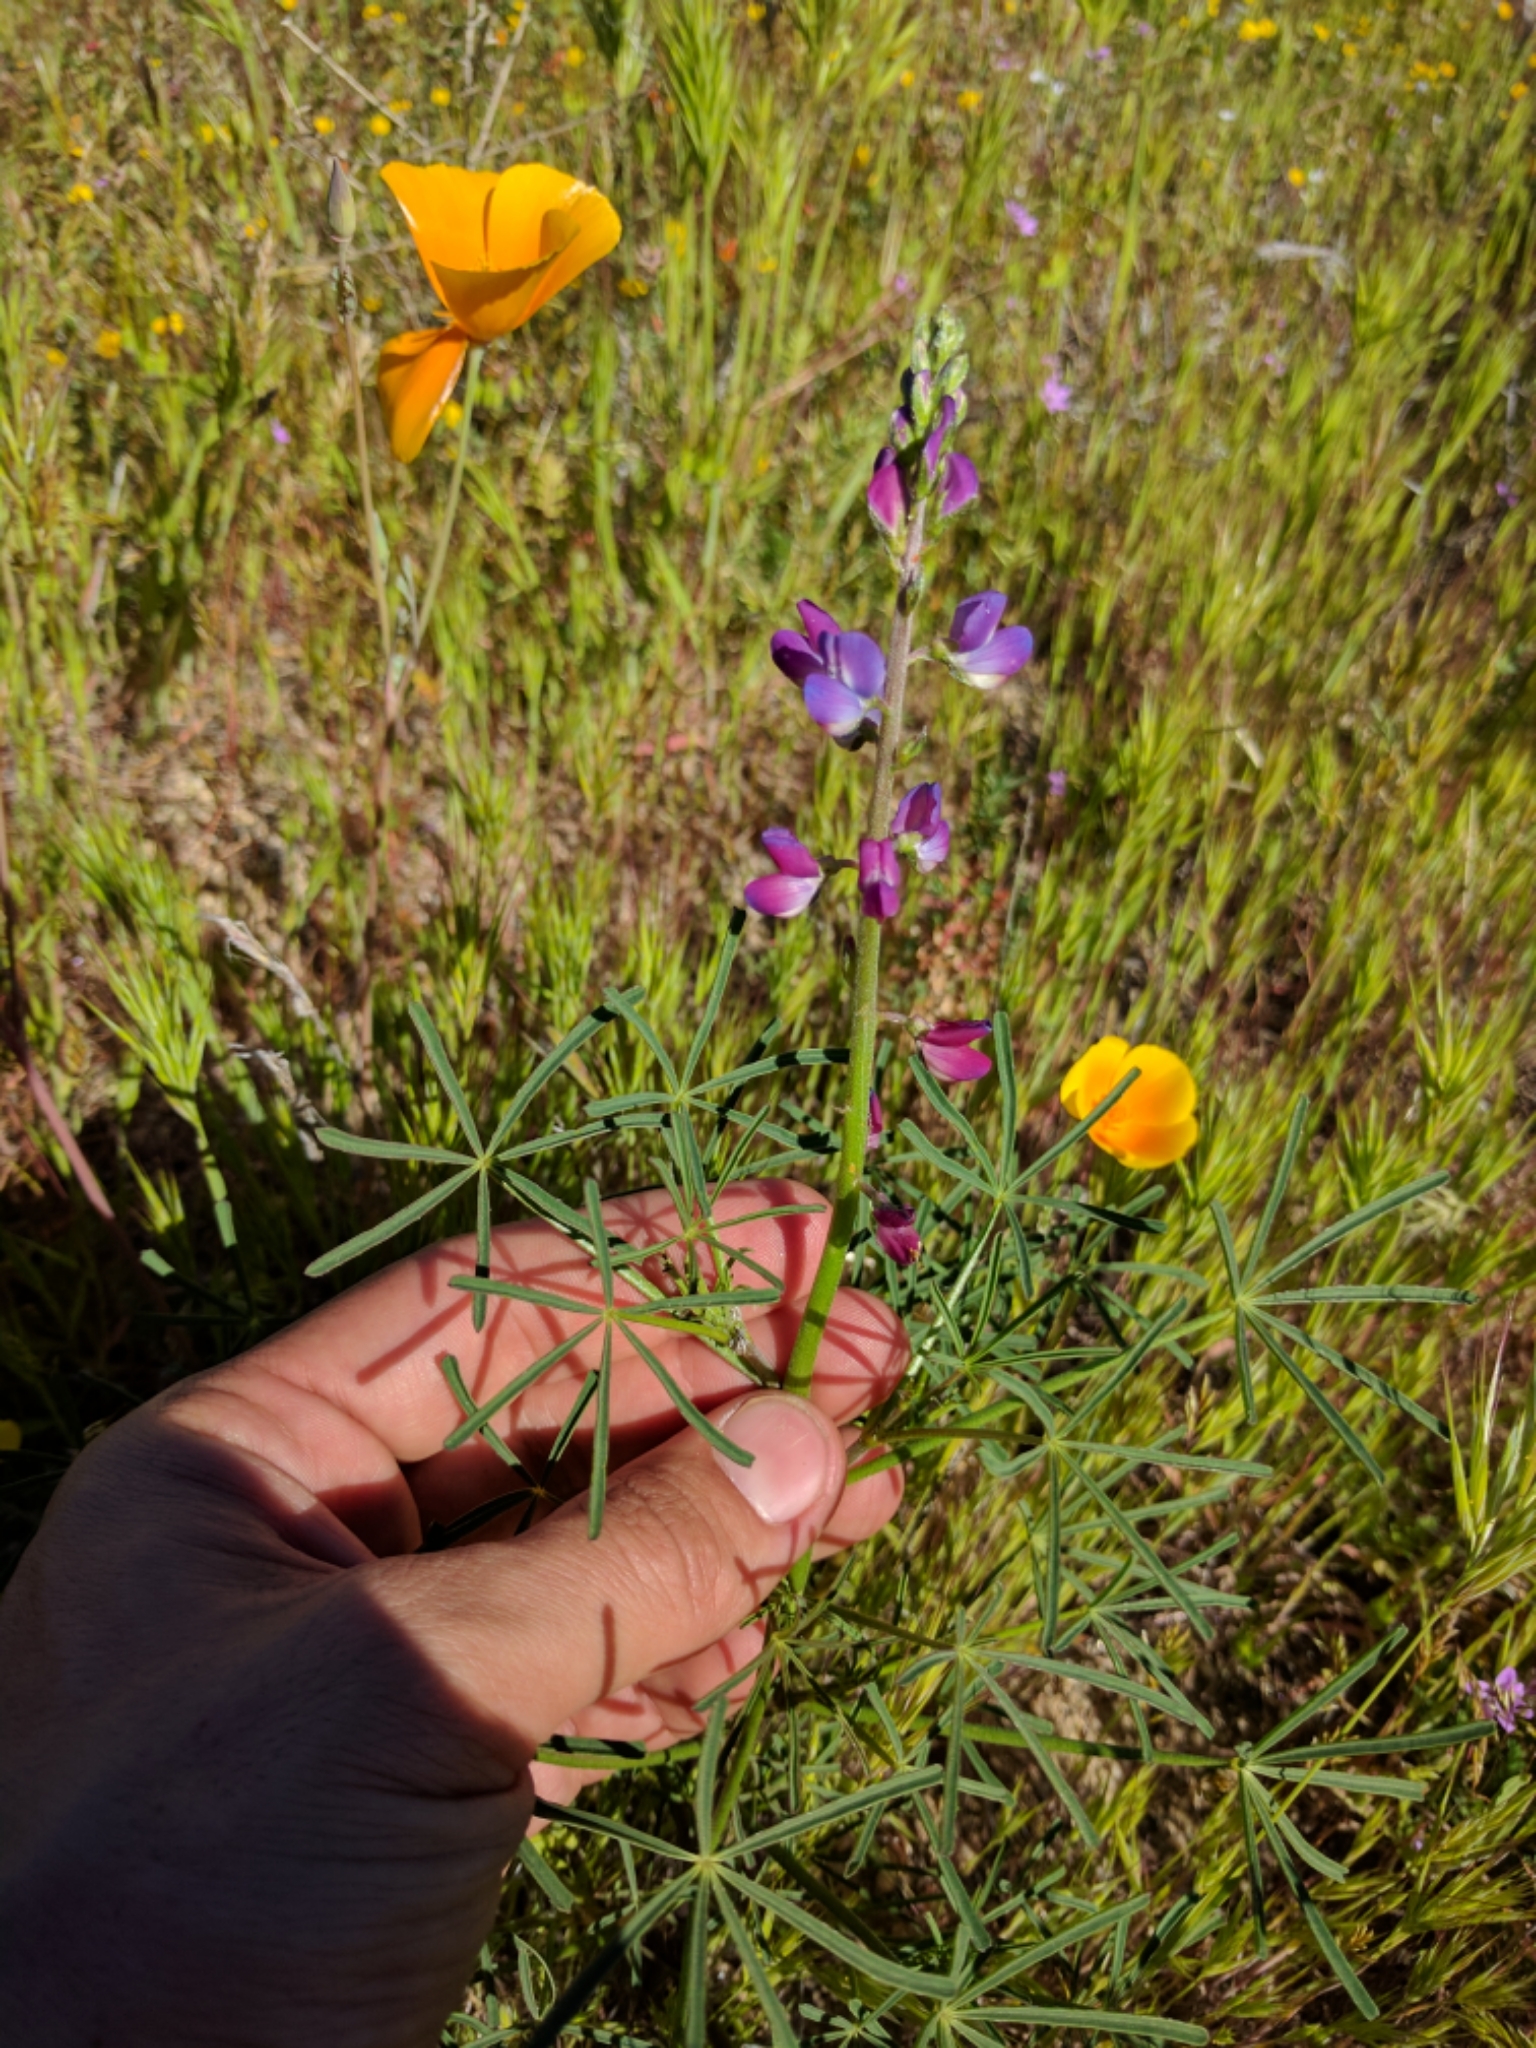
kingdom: Plantae
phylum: Tracheophyta
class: Magnoliopsida
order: Fabales
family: Fabaceae
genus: Lupinus
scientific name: Lupinus truncatus
